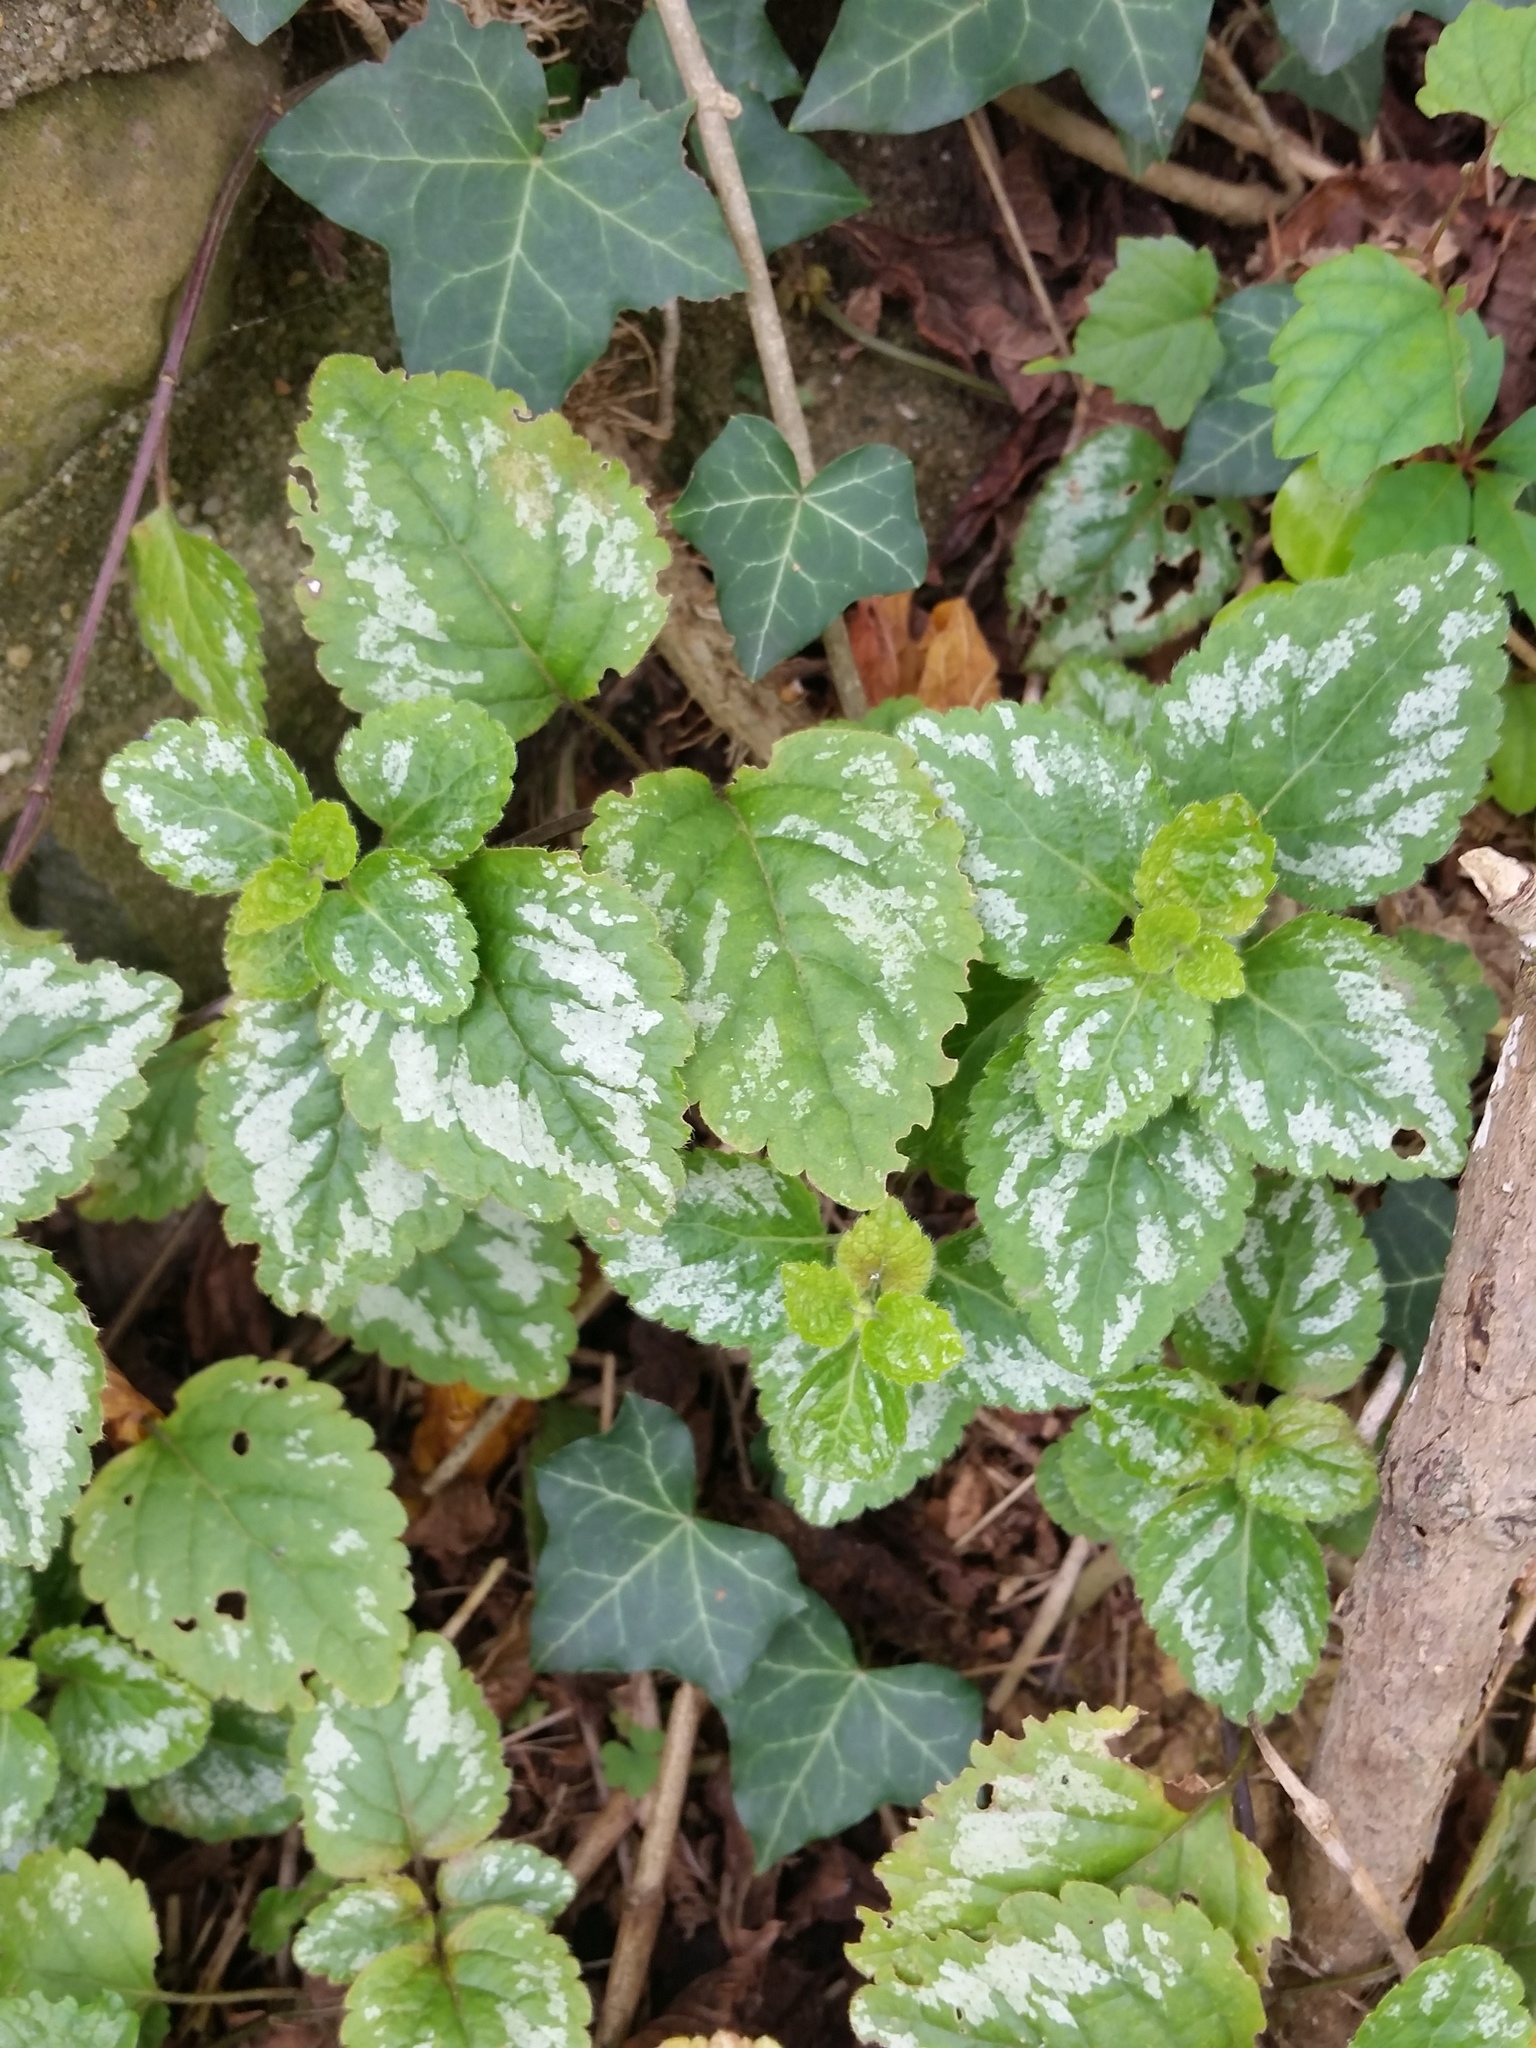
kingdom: Plantae
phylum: Tracheophyta
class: Magnoliopsida
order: Lamiales
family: Lamiaceae
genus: Lamium
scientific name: Lamium galeobdolon
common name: Yellow archangel
